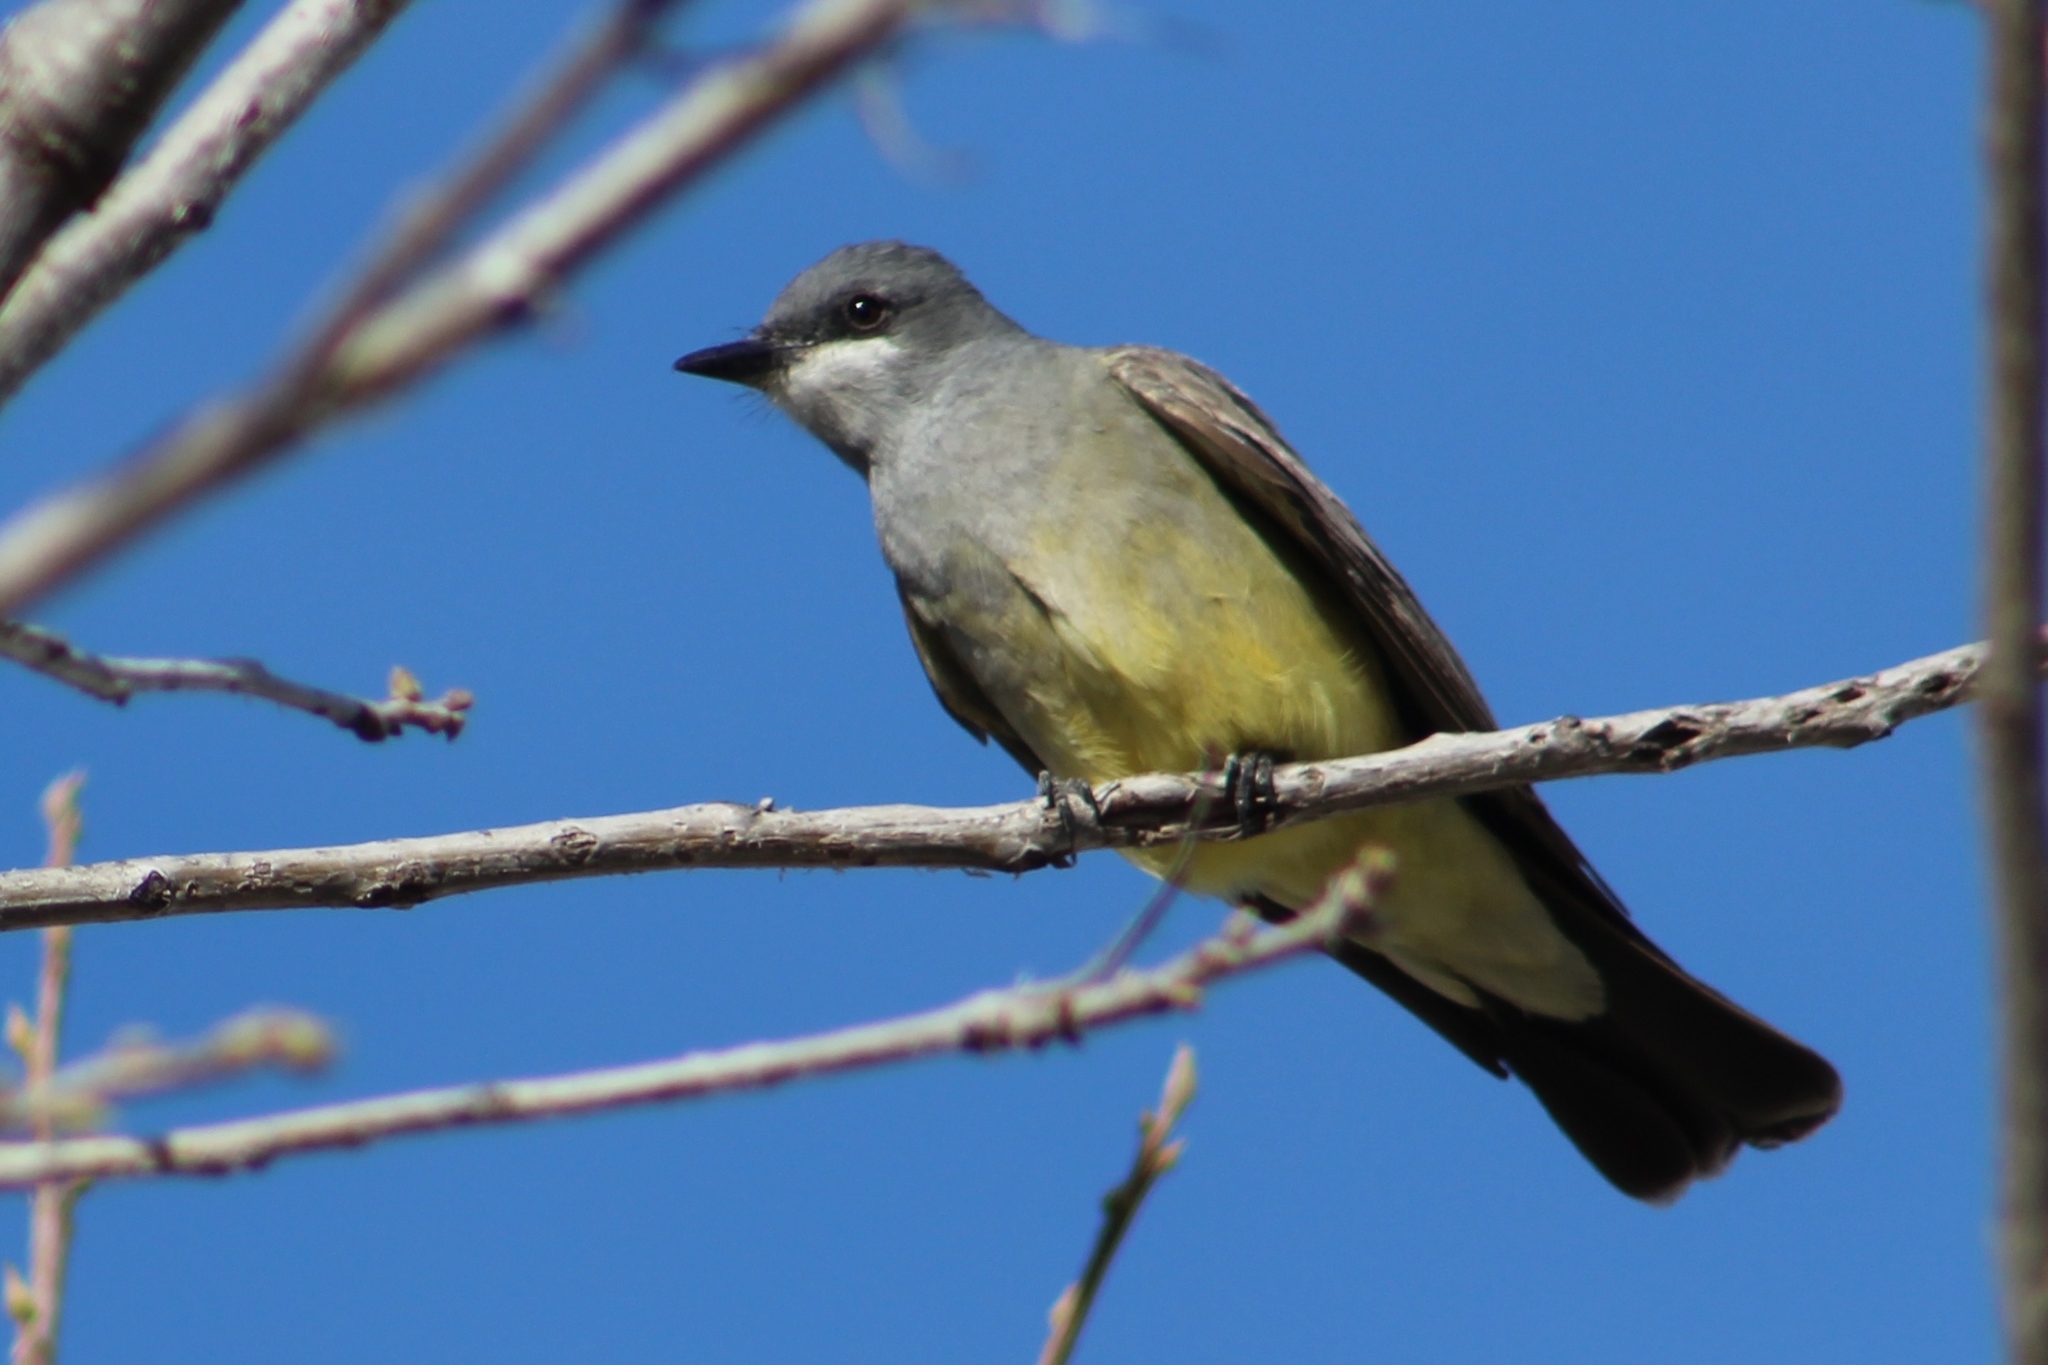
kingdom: Animalia
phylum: Chordata
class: Aves
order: Passeriformes
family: Tyrannidae
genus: Tyrannus
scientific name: Tyrannus vociferans
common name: Cassin's kingbird
